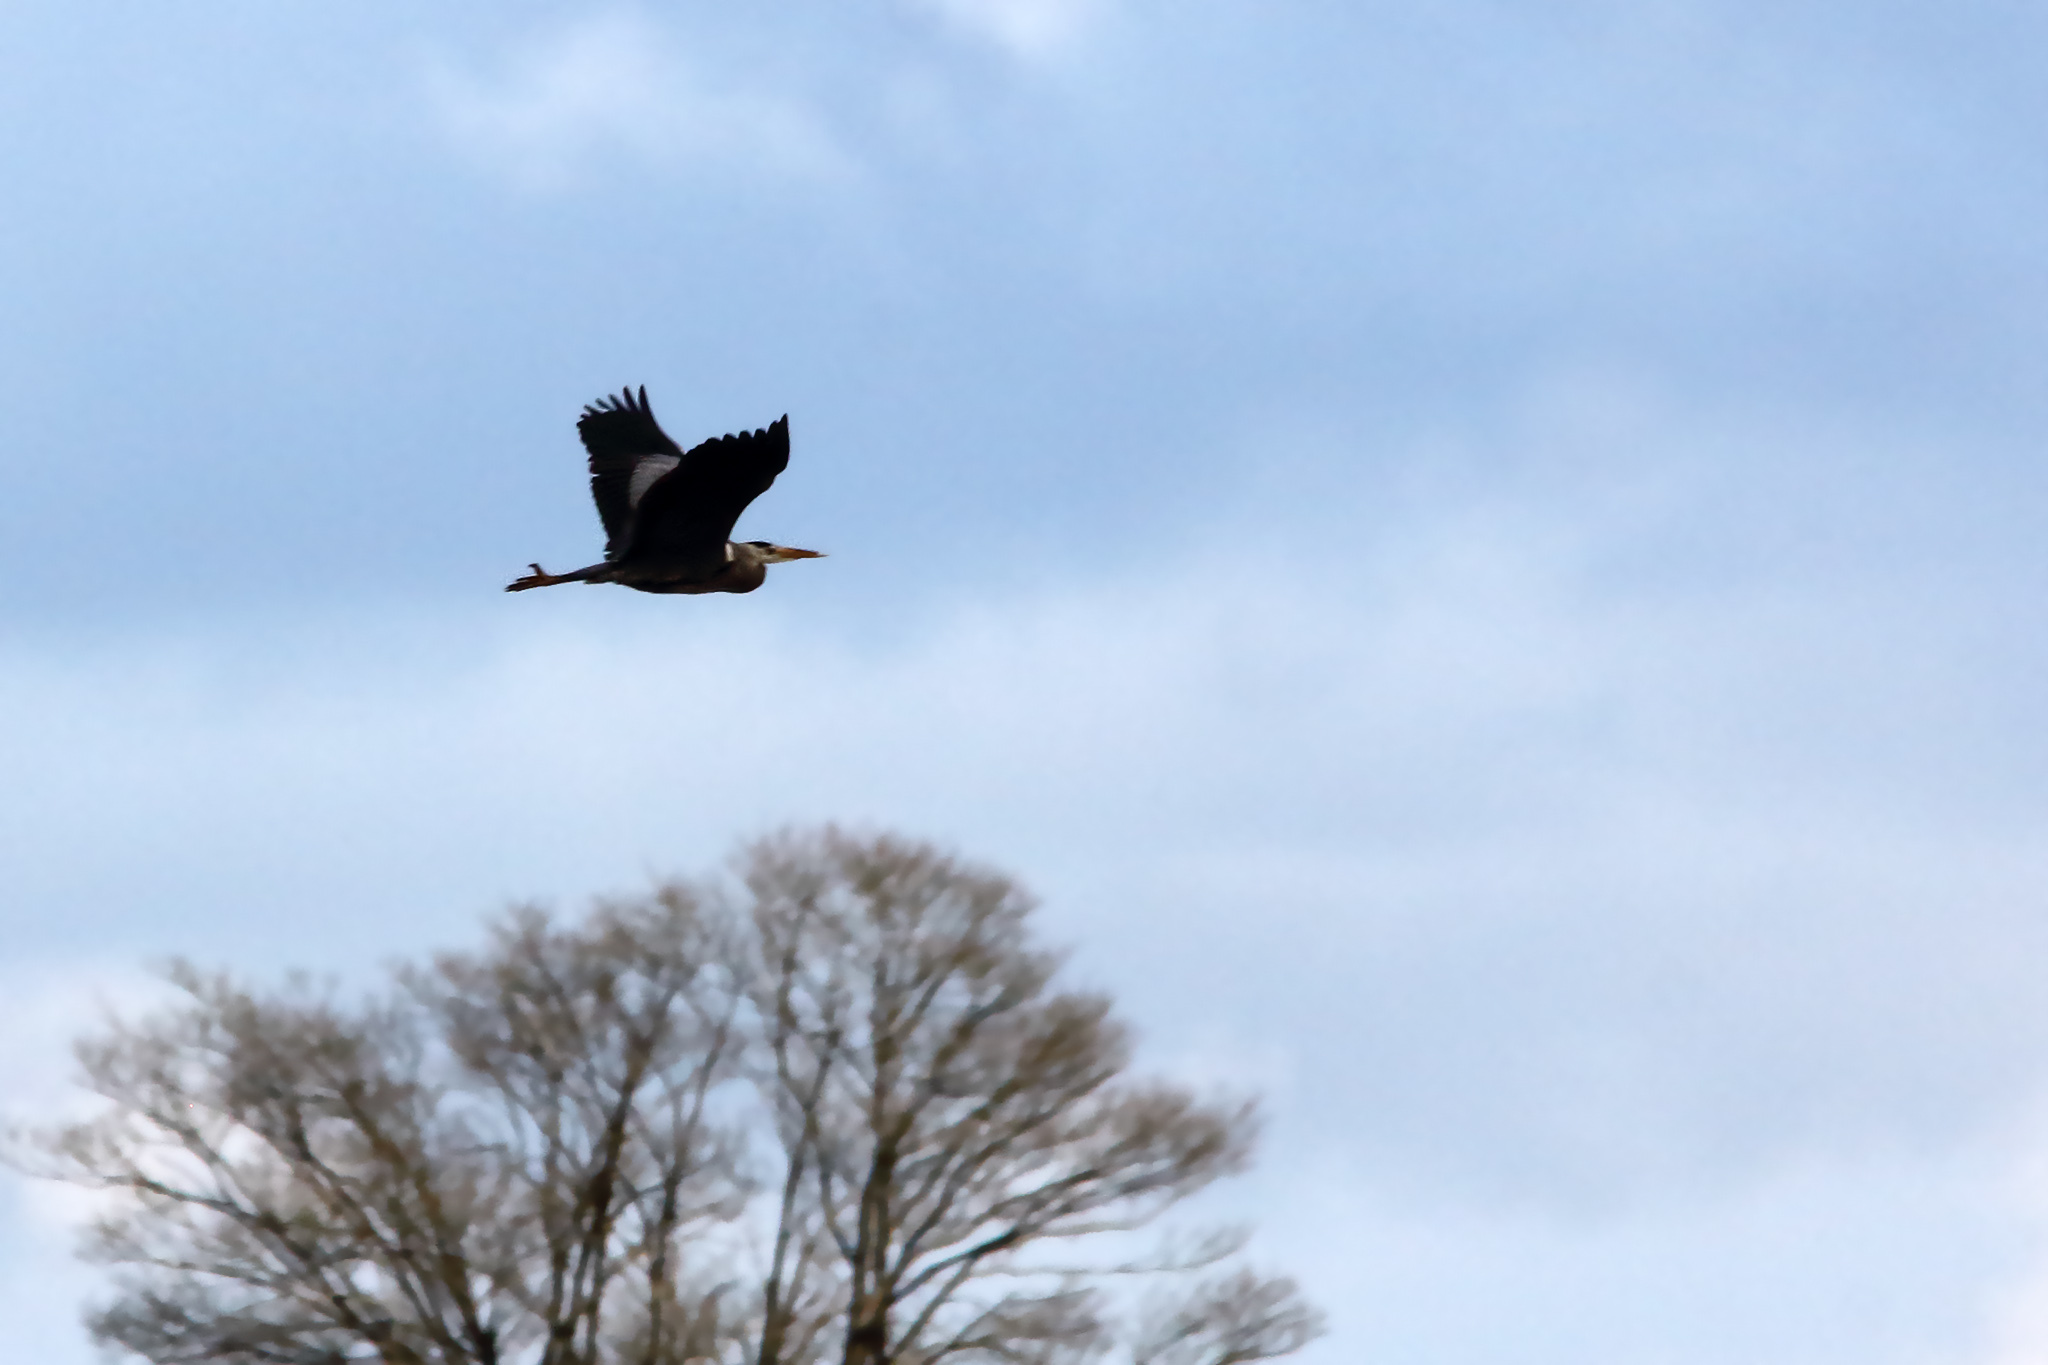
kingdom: Animalia
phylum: Chordata
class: Aves
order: Pelecaniformes
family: Ardeidae
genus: Ardea
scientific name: Ardea cinerea
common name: Grey heron
